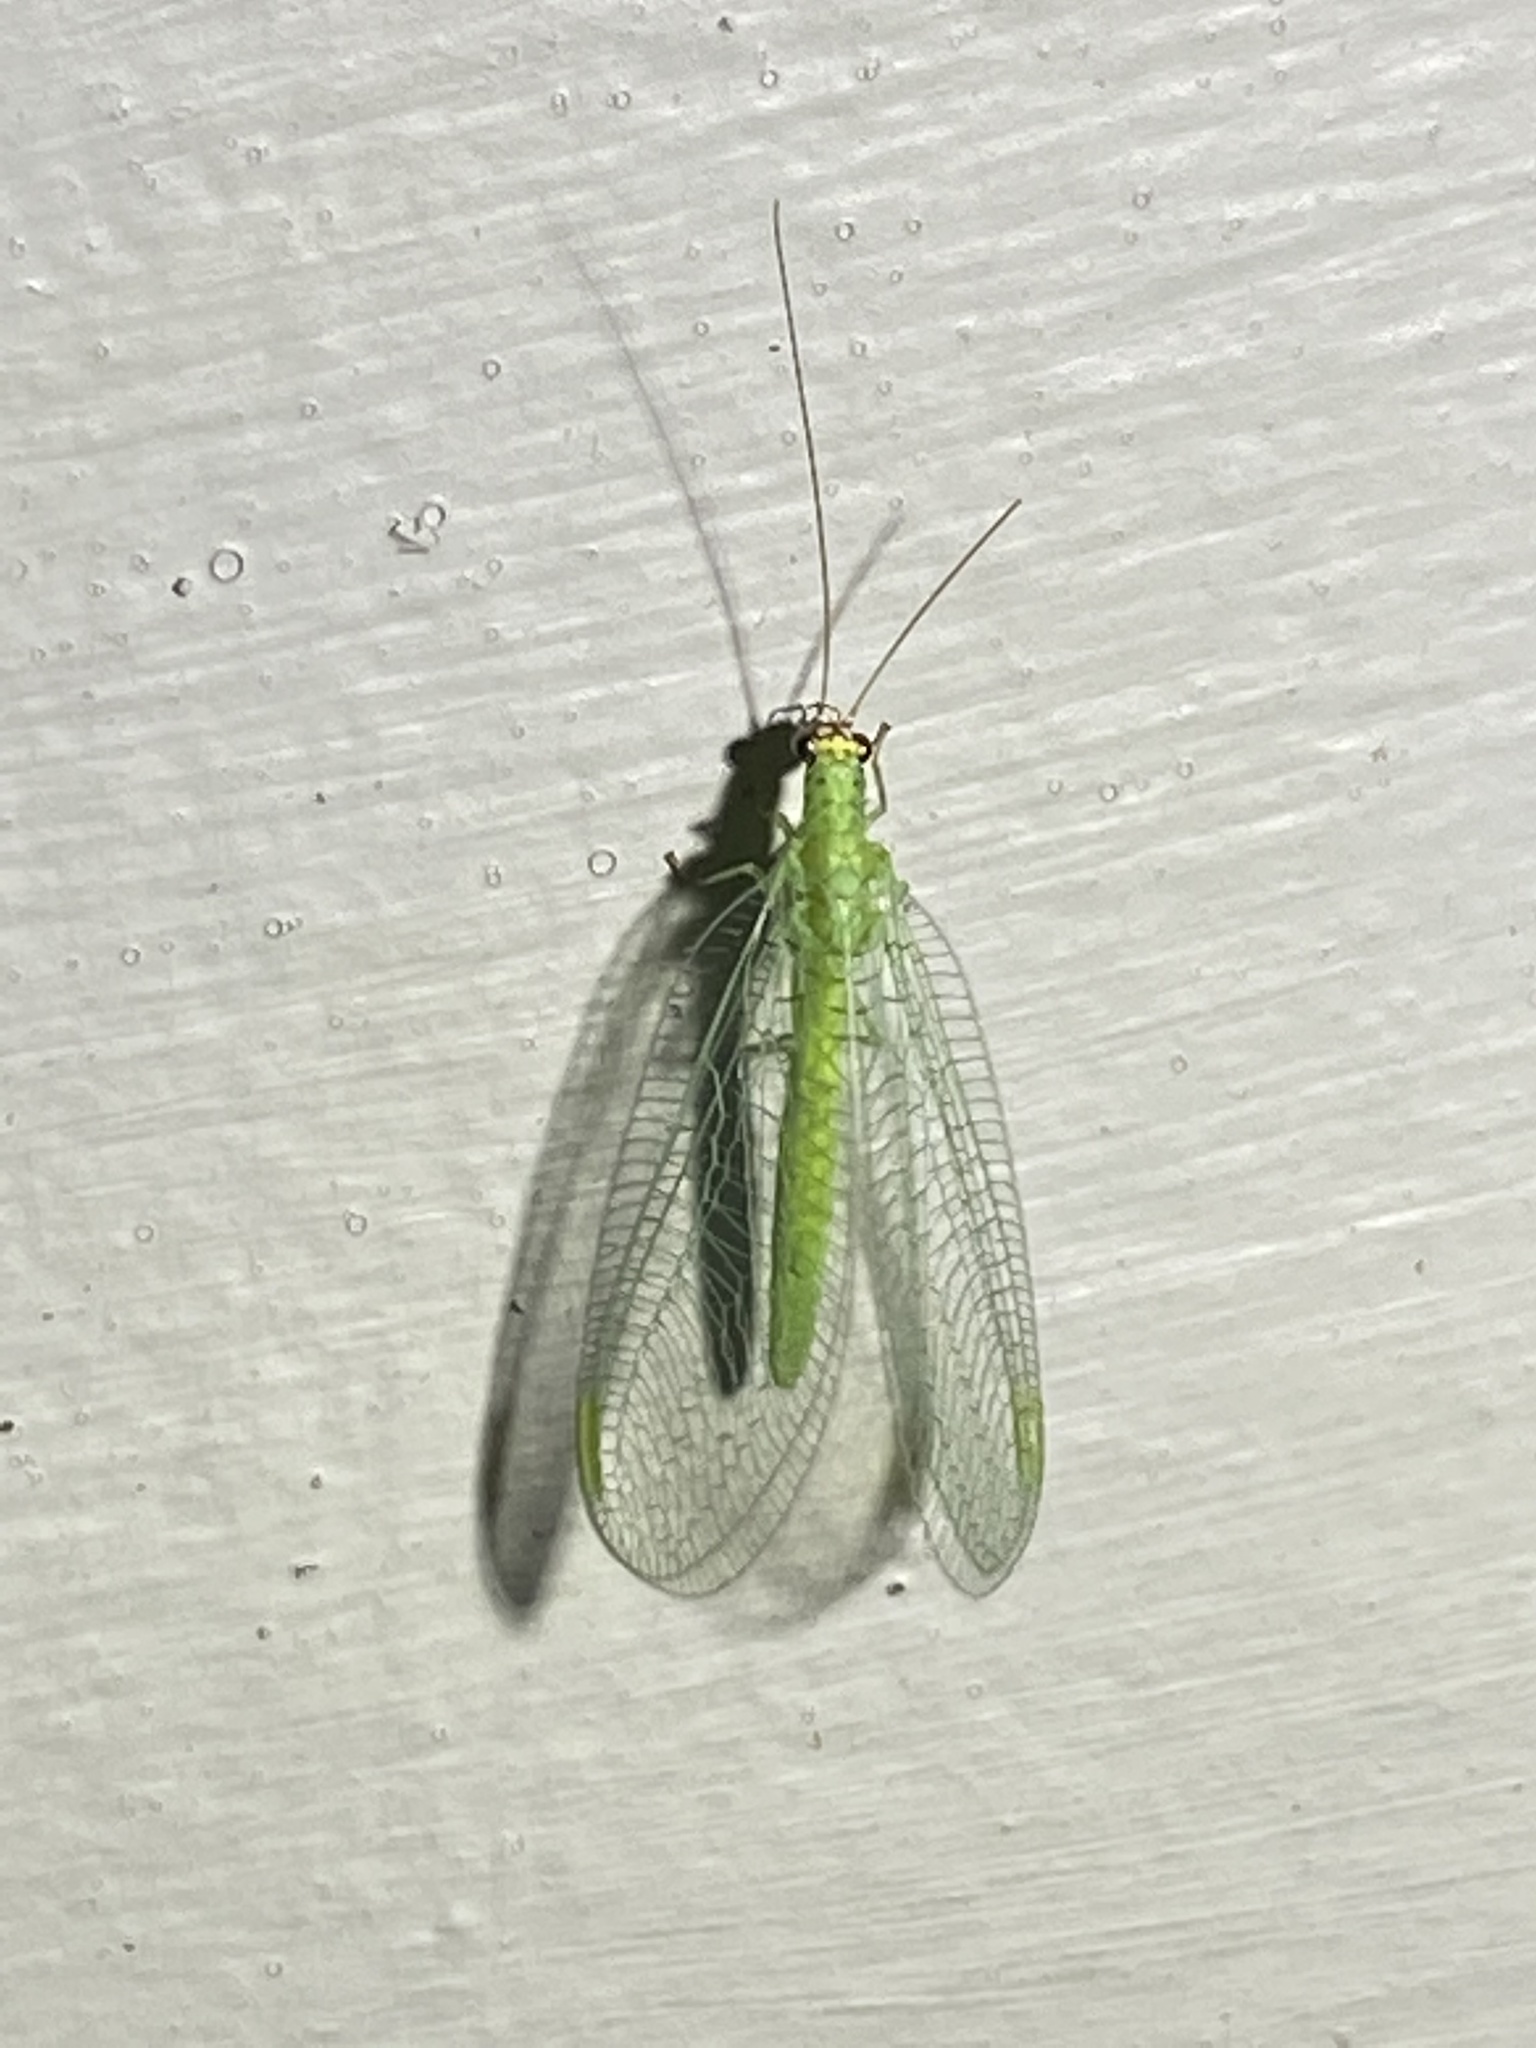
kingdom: Animalia
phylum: Arthropoda
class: Insecta
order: Neuroptera
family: Chrysopidae
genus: Chrysopa
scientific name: Chrysopa oculata
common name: Golden-eyed lacewing
